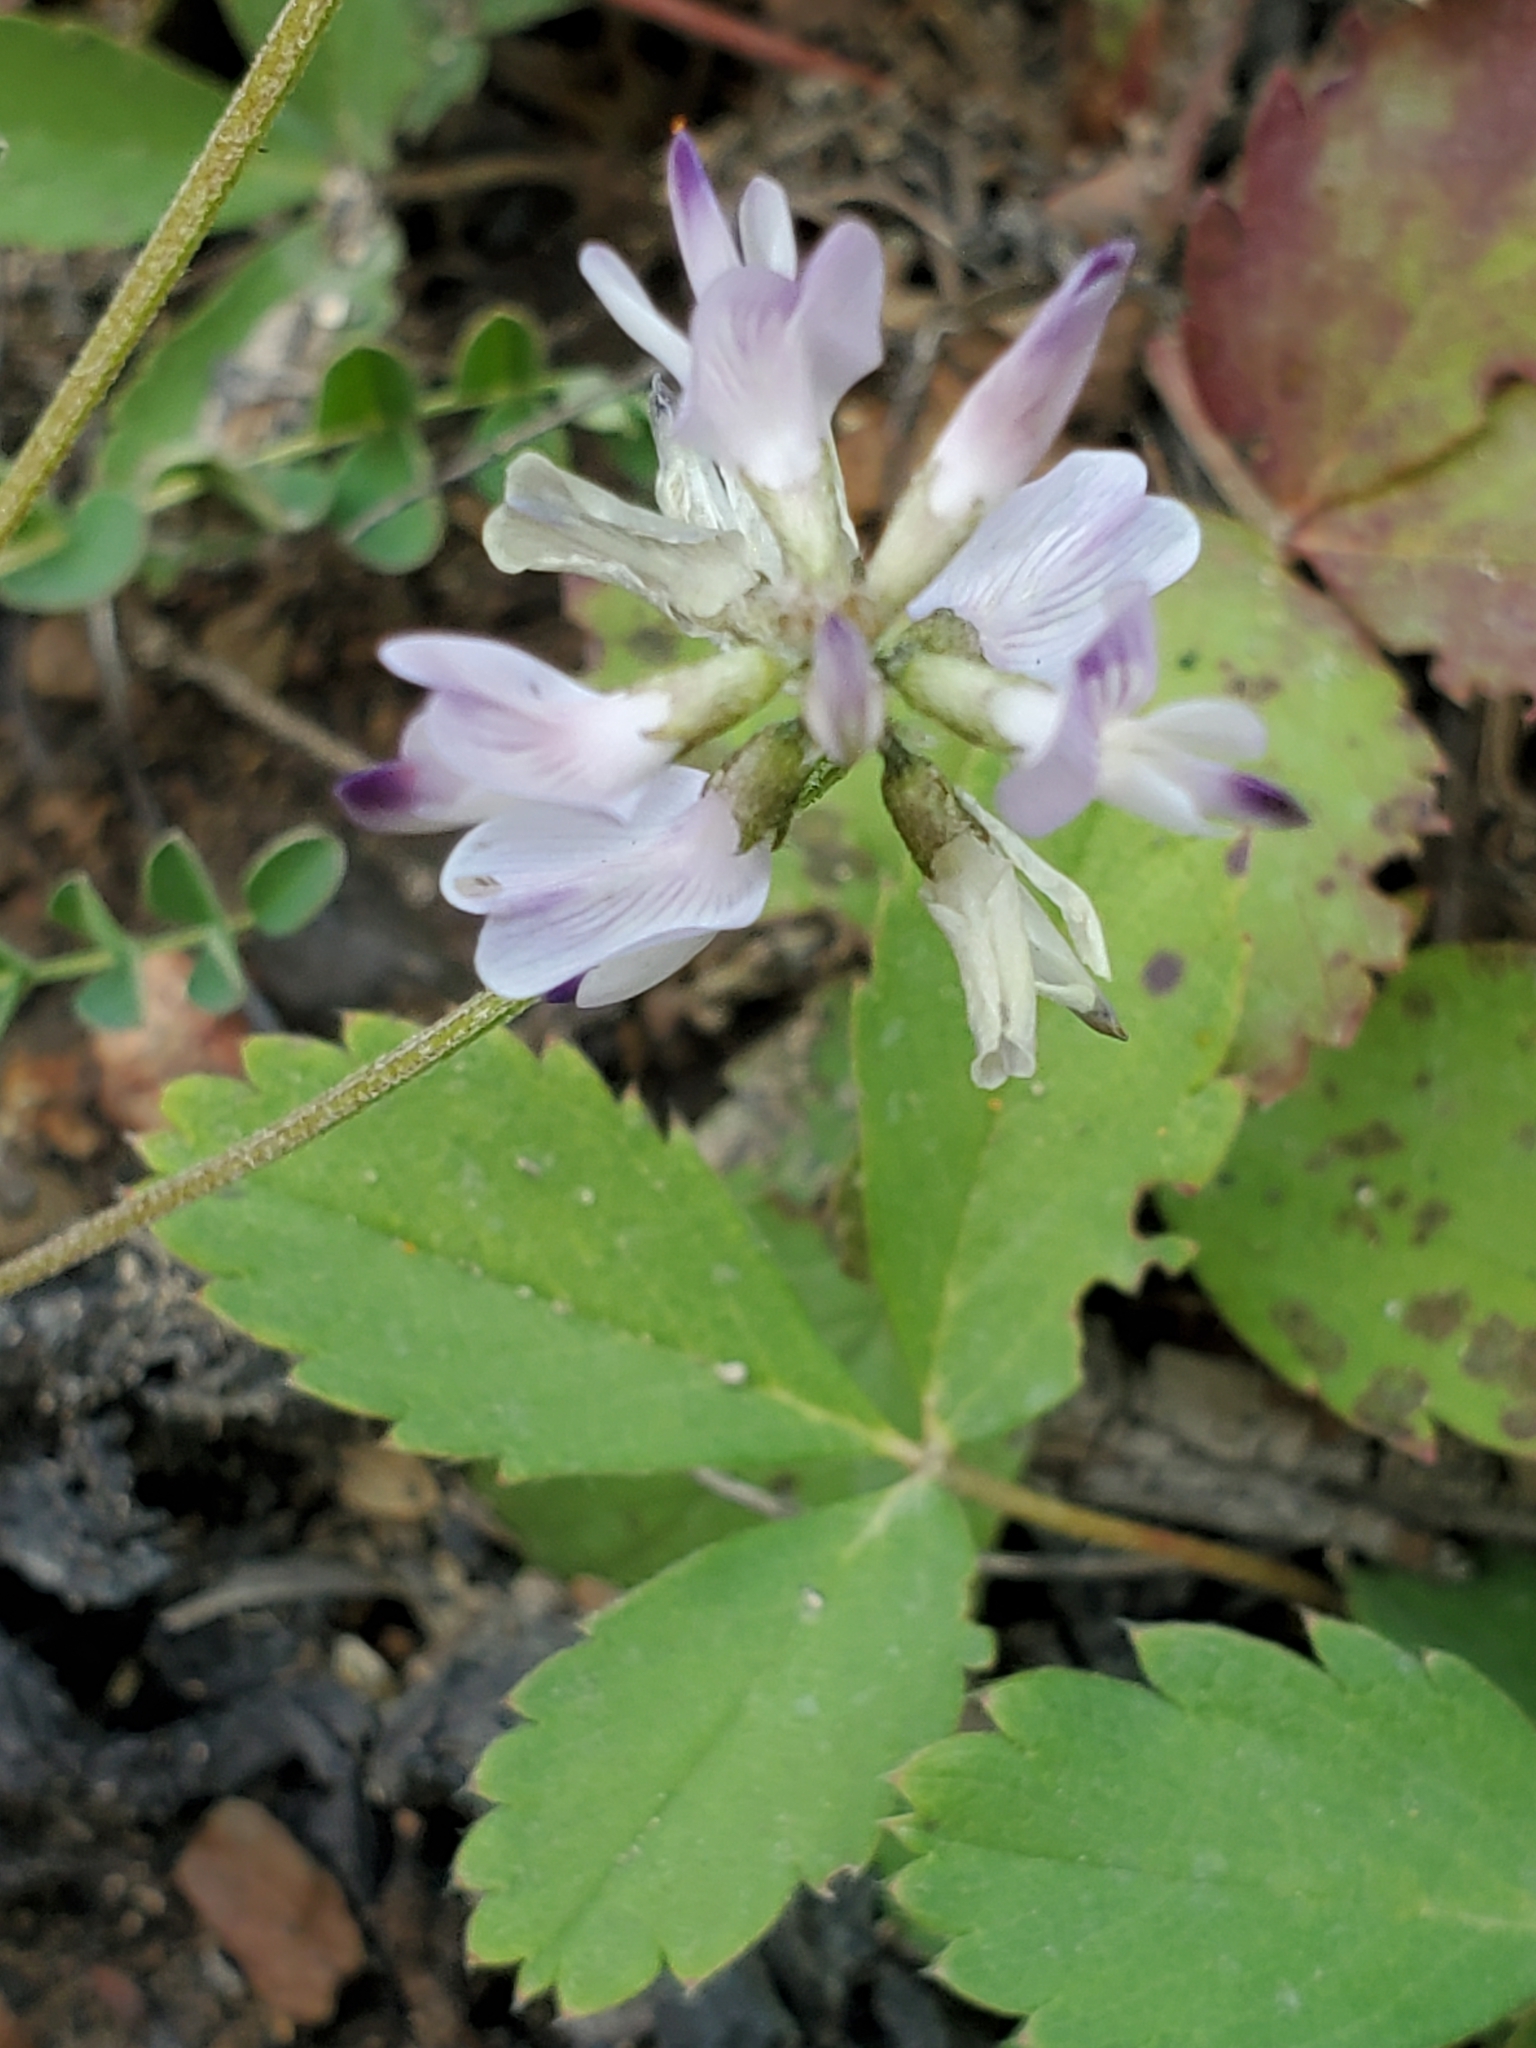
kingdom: Plantae
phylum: Tracheophyta
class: Magnoliopsida
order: Fabales
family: Fabaceae
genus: Astragalus
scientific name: Astragalus alpinus
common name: Alpine milk-vetch
